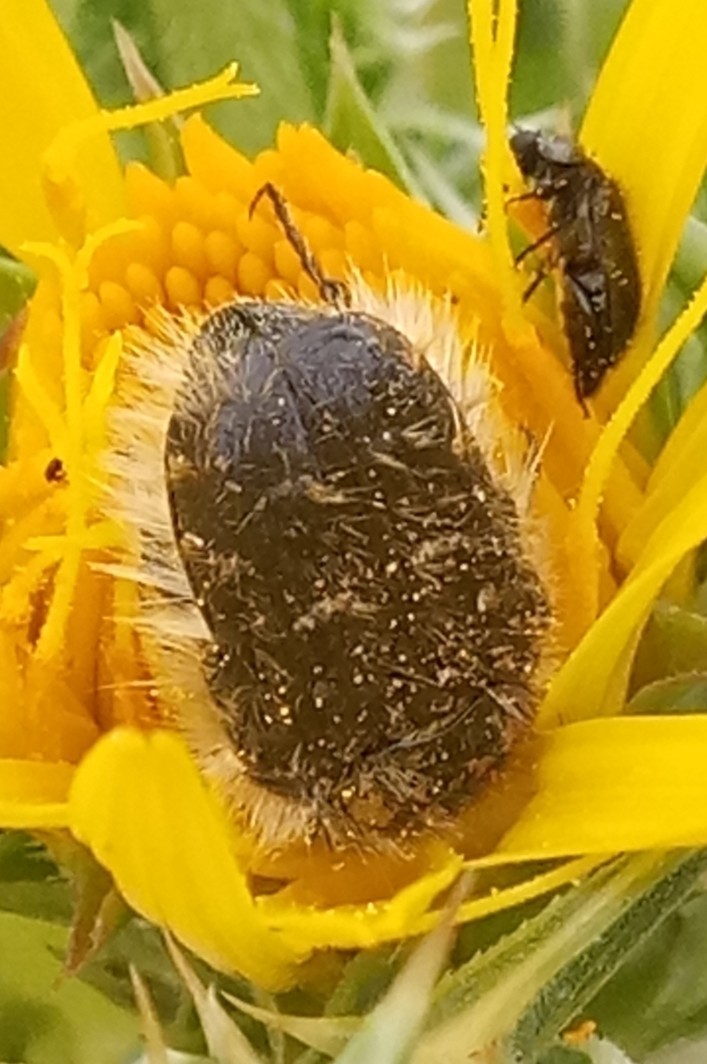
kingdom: Animalia
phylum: Arthropoda
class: Insecta
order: Coleoptera
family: Scarabaeidae
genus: Tropinota
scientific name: Tropinota squalida
